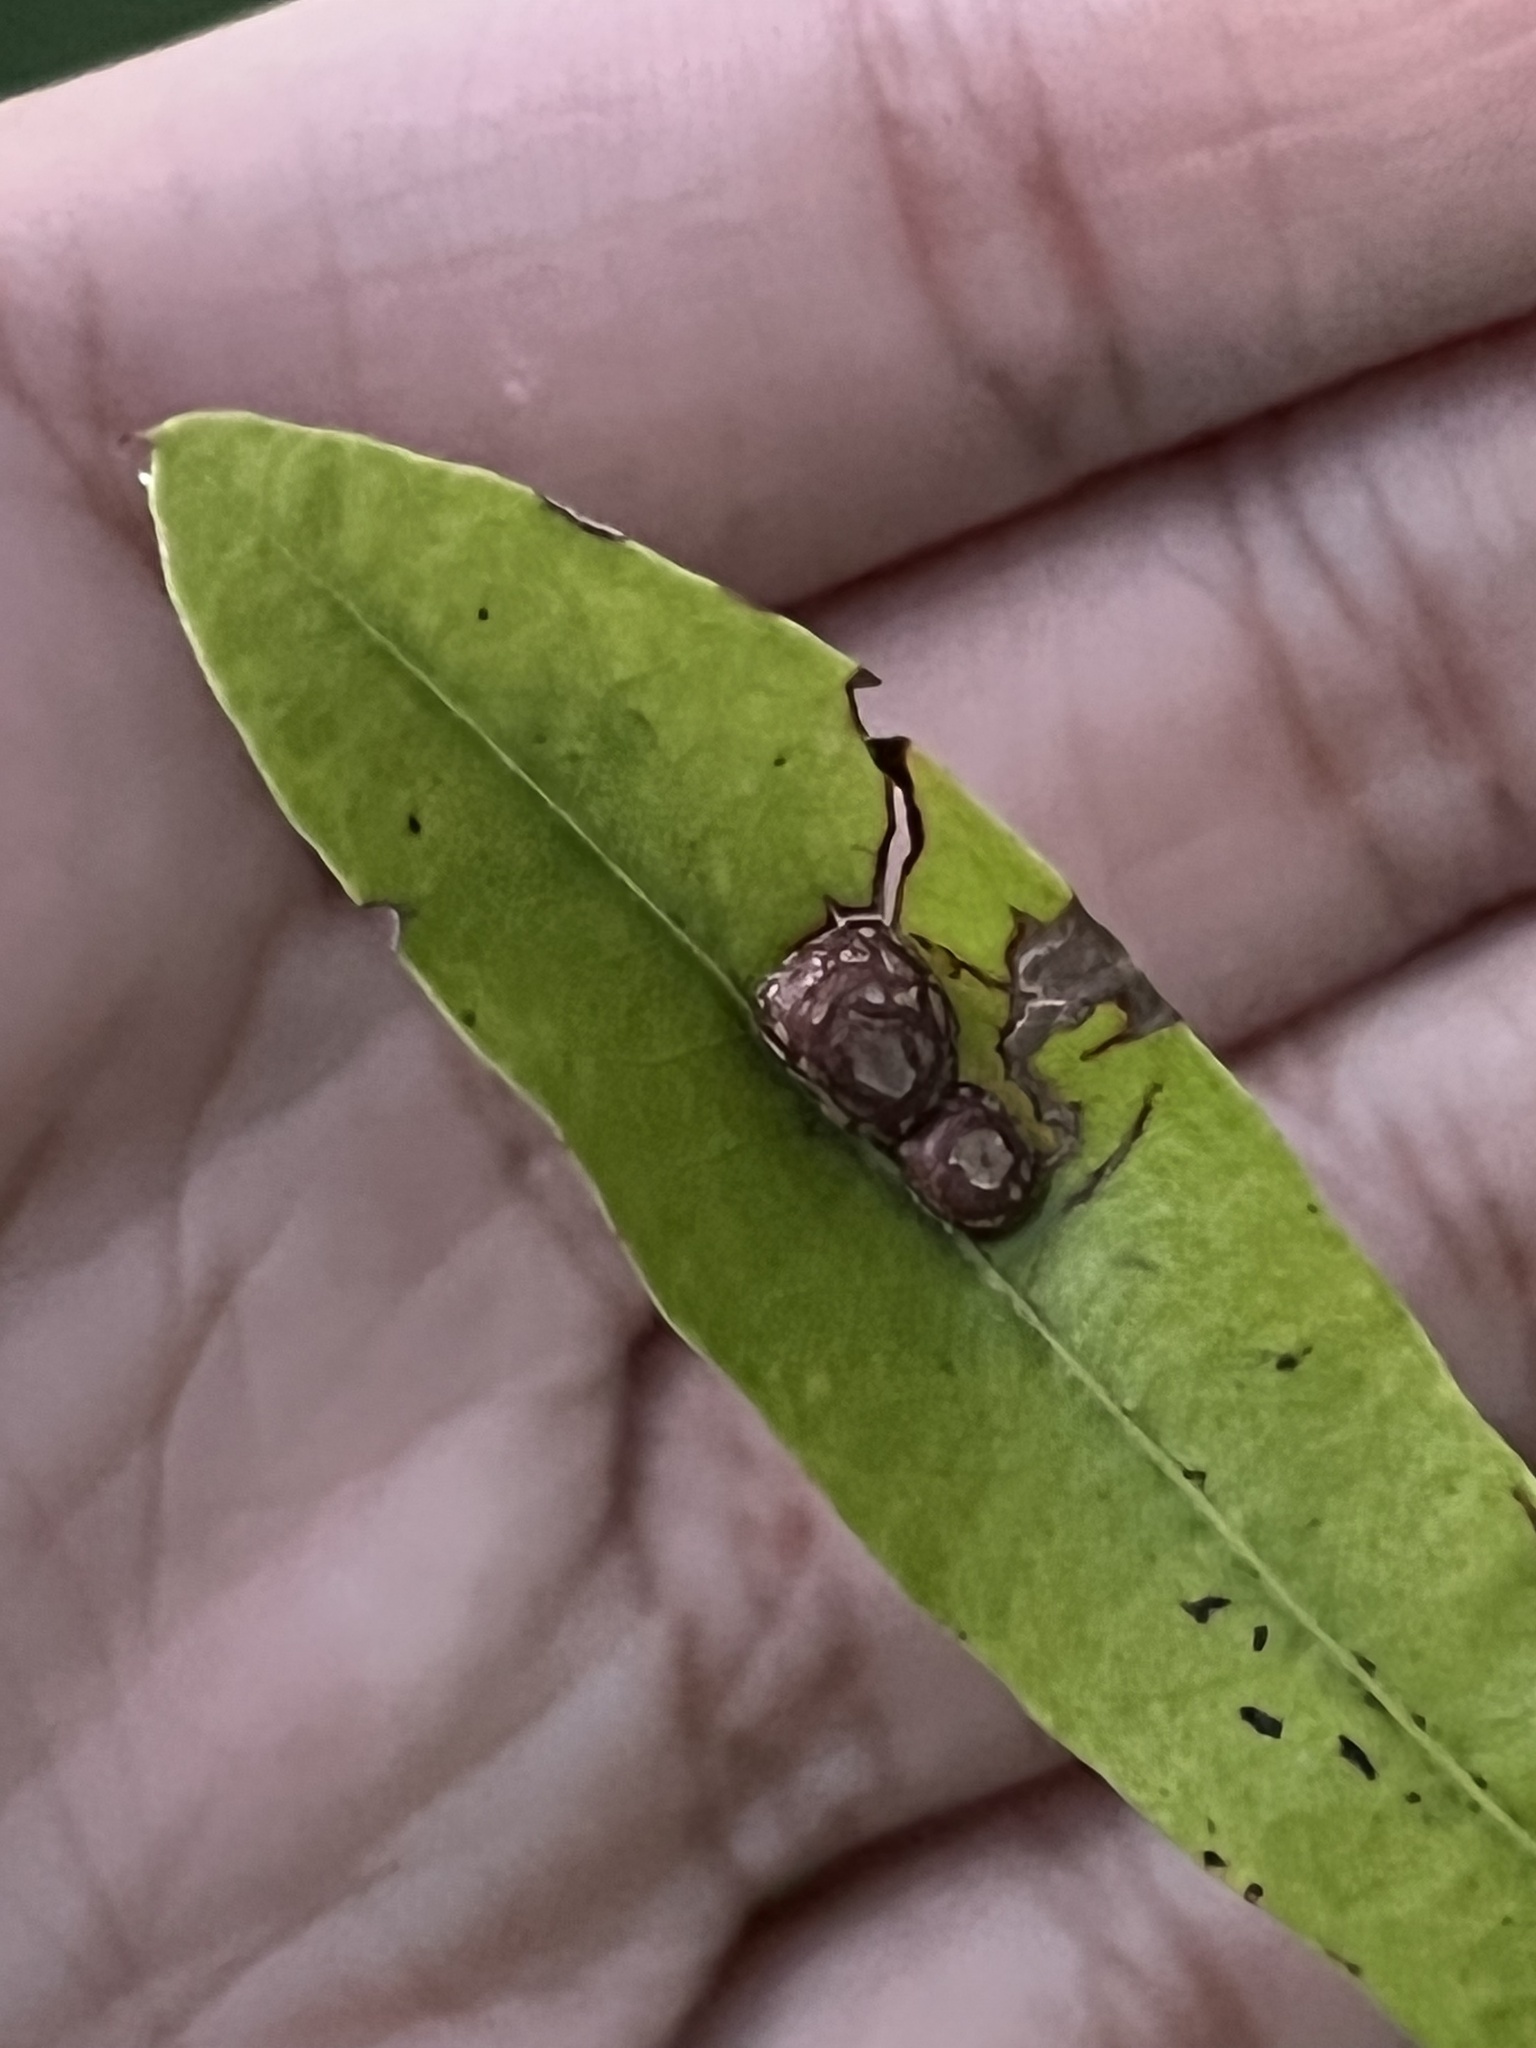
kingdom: Animalia
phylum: Arthropoda
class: Insecta
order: Diptera
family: Cecidomyiidae
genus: Polystepha
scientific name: Polystepha pilulae
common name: Oak leaf gall midge
